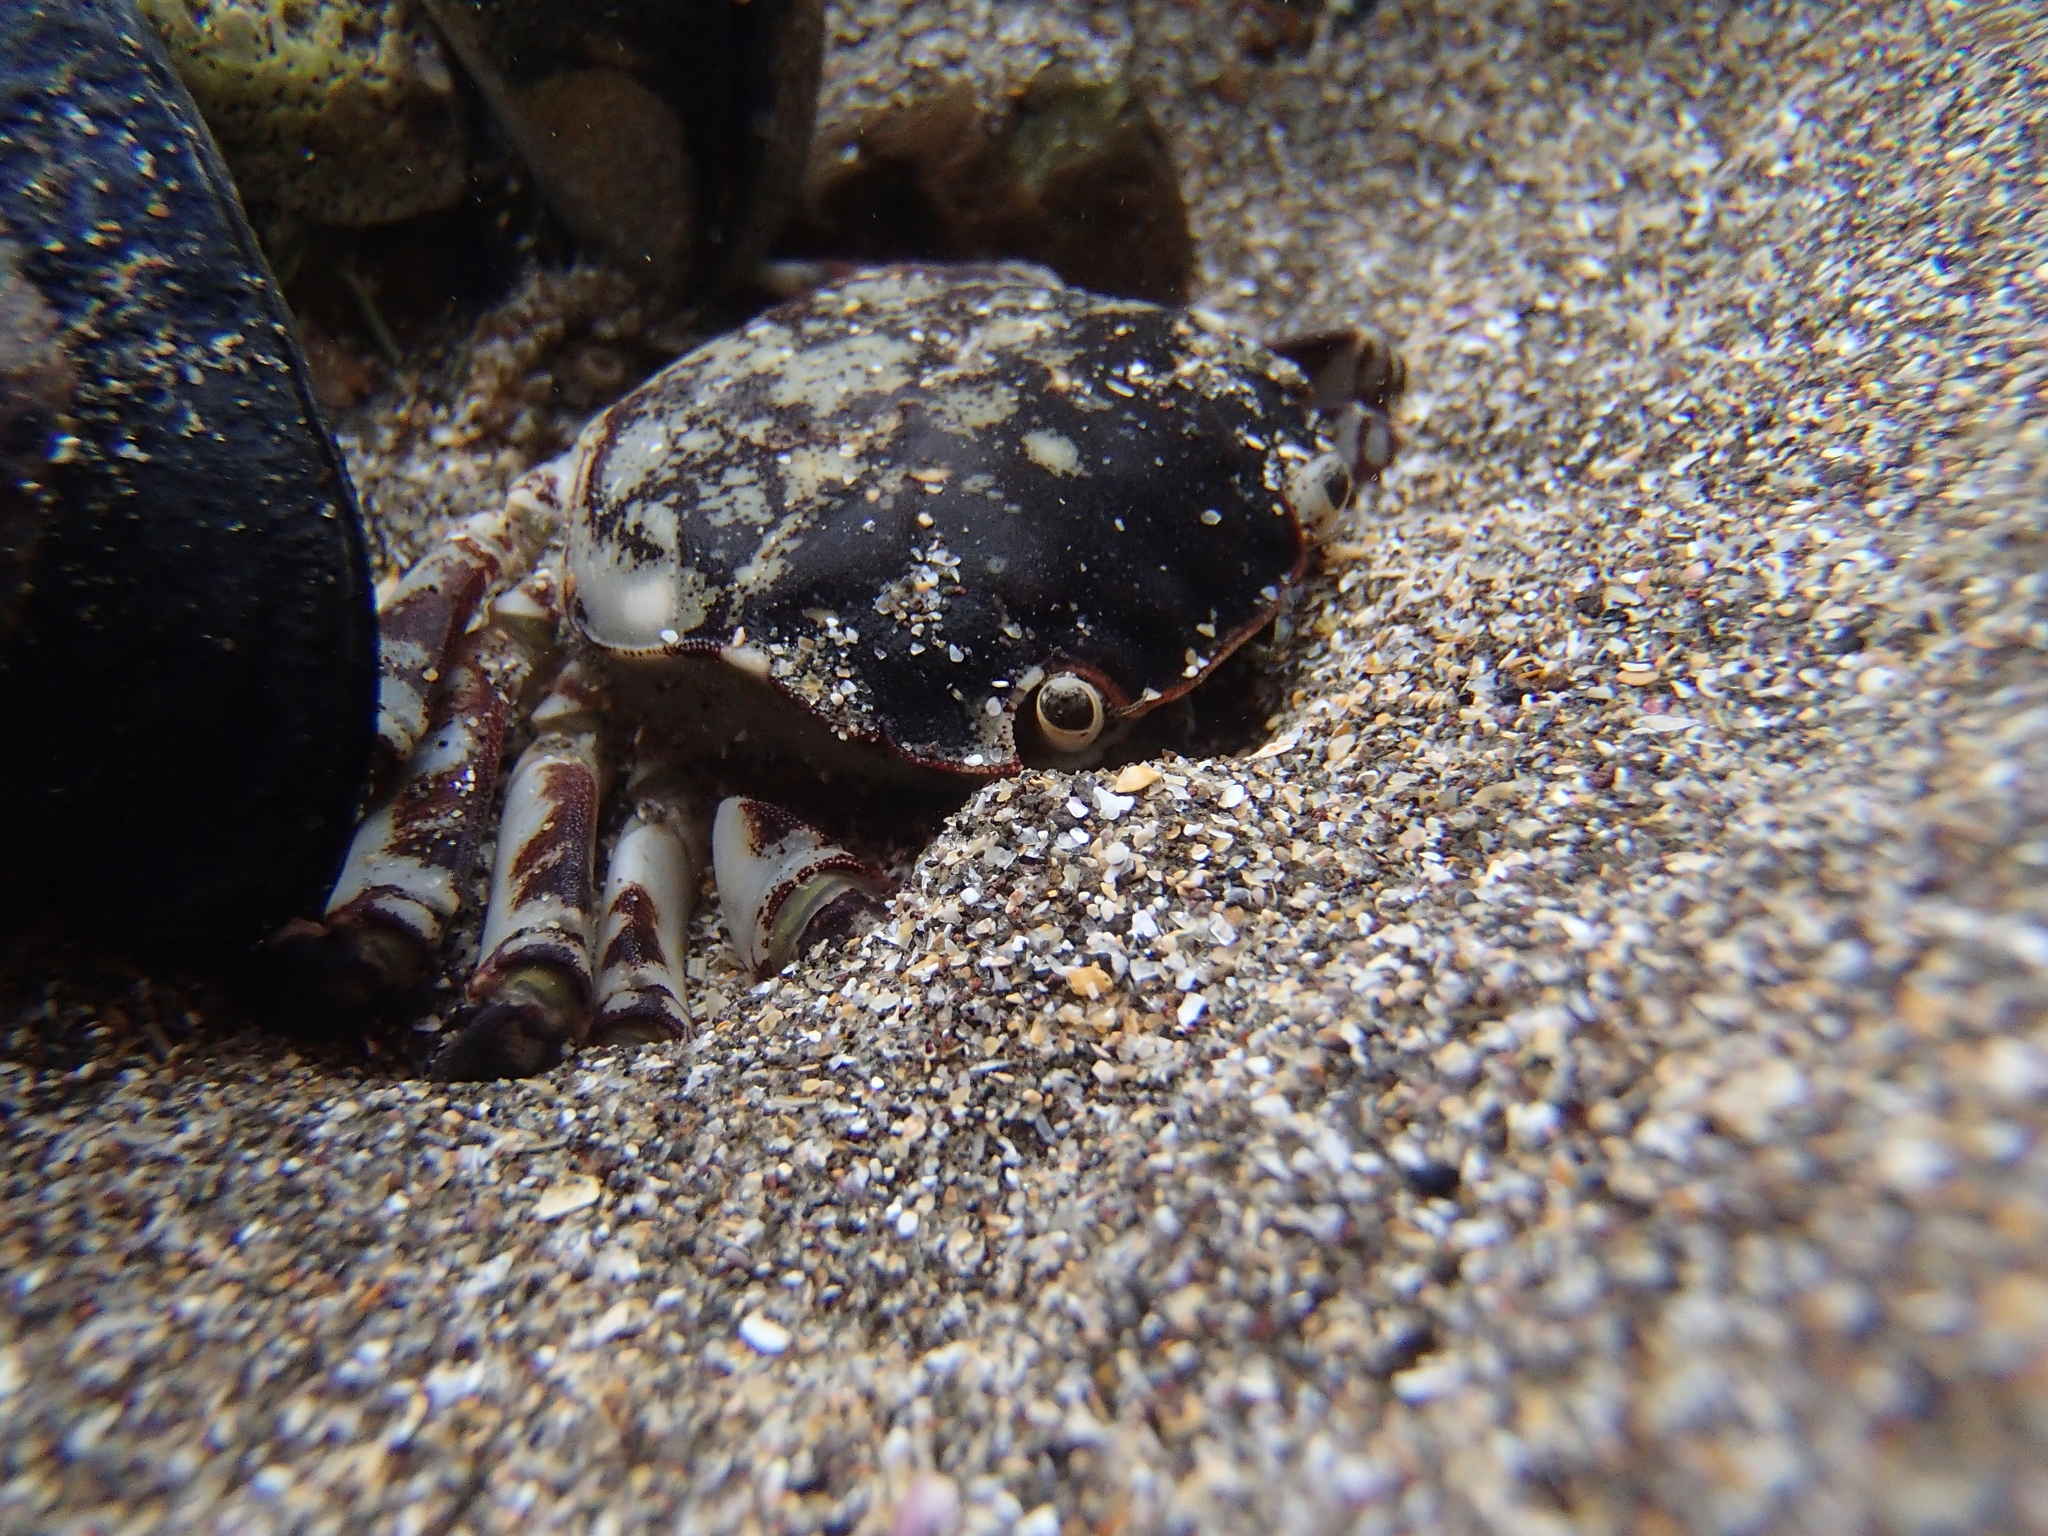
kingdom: Animalia
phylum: Arthropoda
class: Malacostraca
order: Decapoda
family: Varunidae
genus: Hemigrapsus
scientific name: Hemigrapsus sexdentatus
